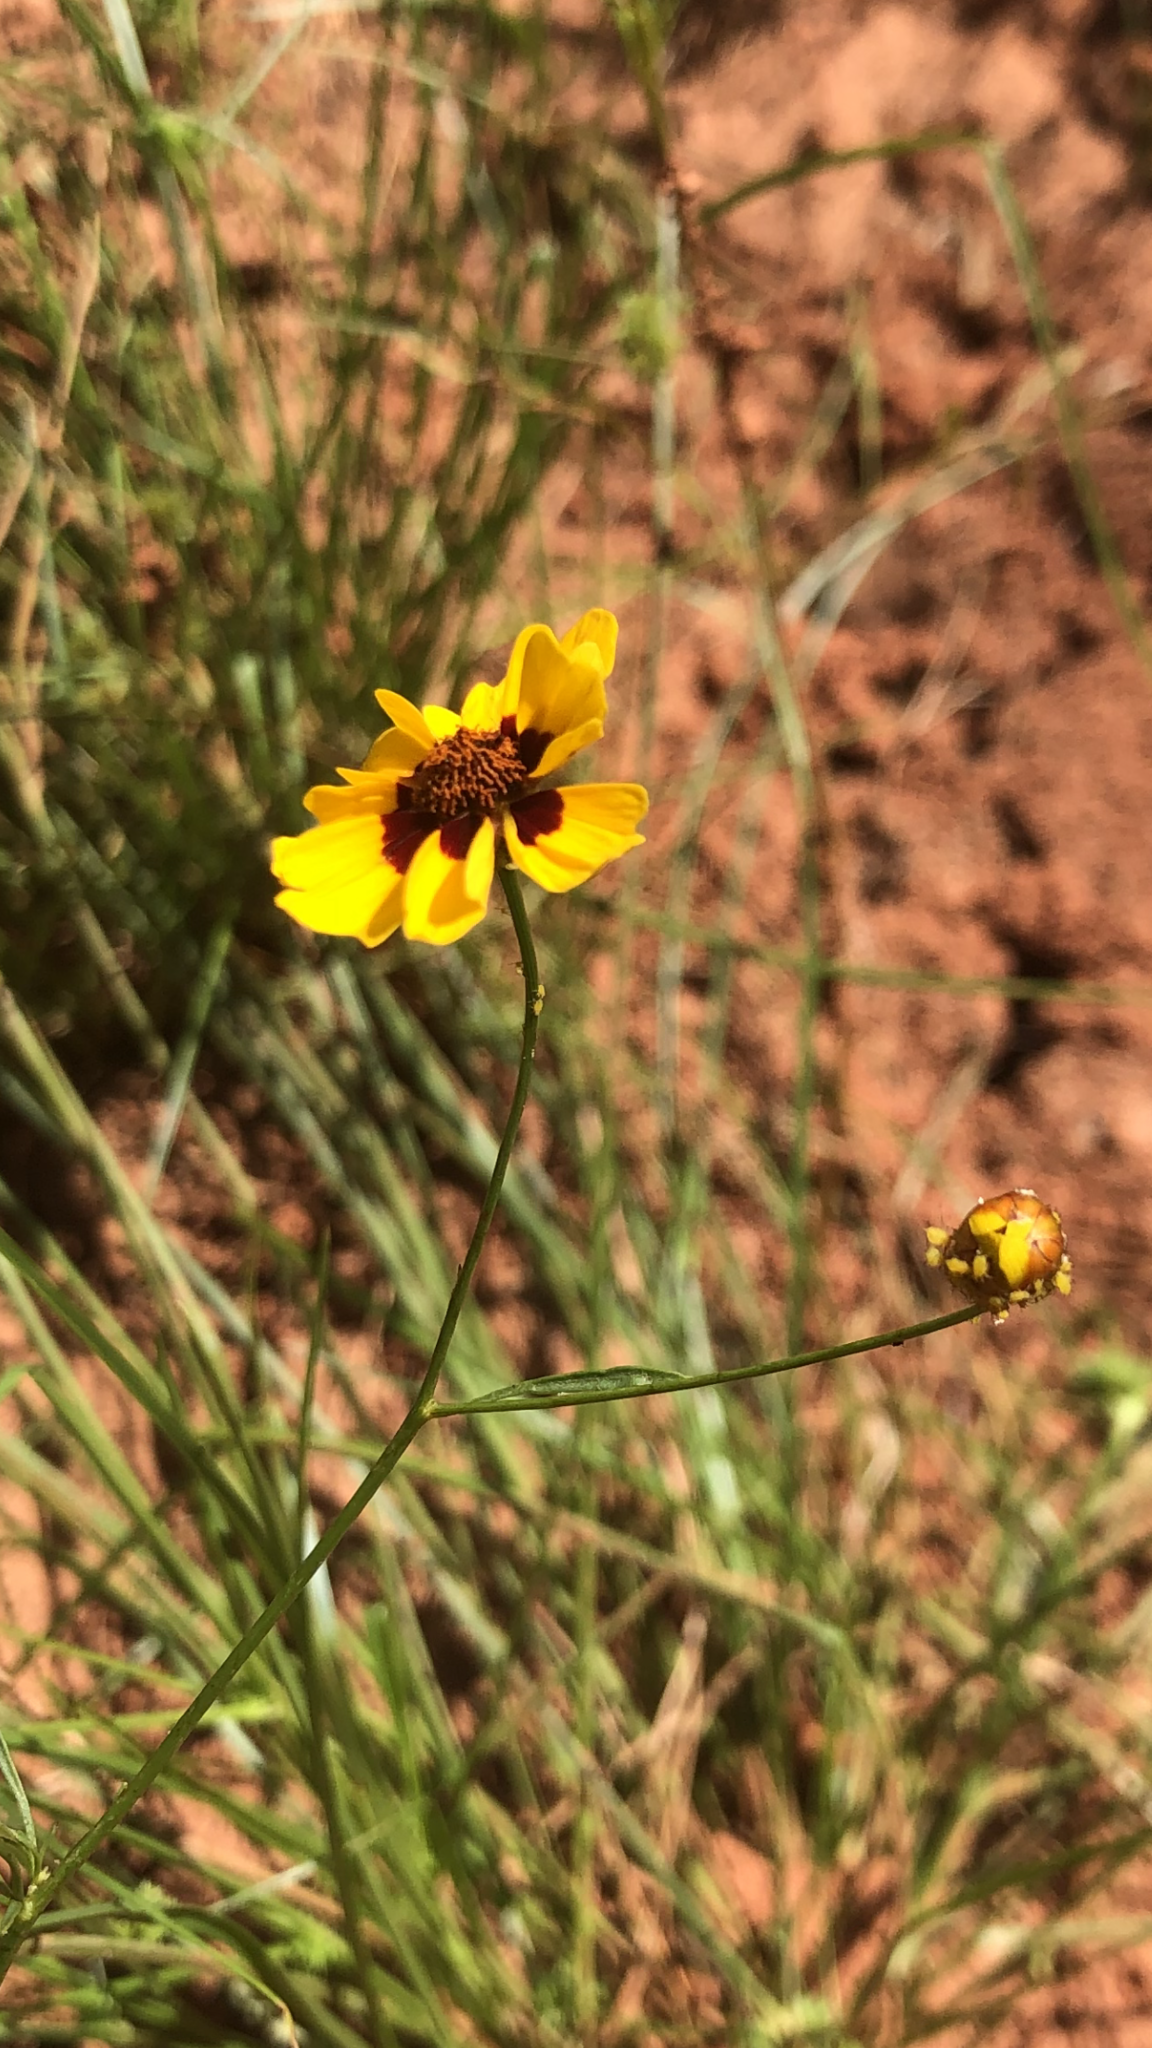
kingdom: Plantae
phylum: Tracheophyta
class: Magnoliopsida
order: Asterales
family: Asteraceae
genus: Coreopsis
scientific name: Coreopsis tinctoria
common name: Garden tickseed
